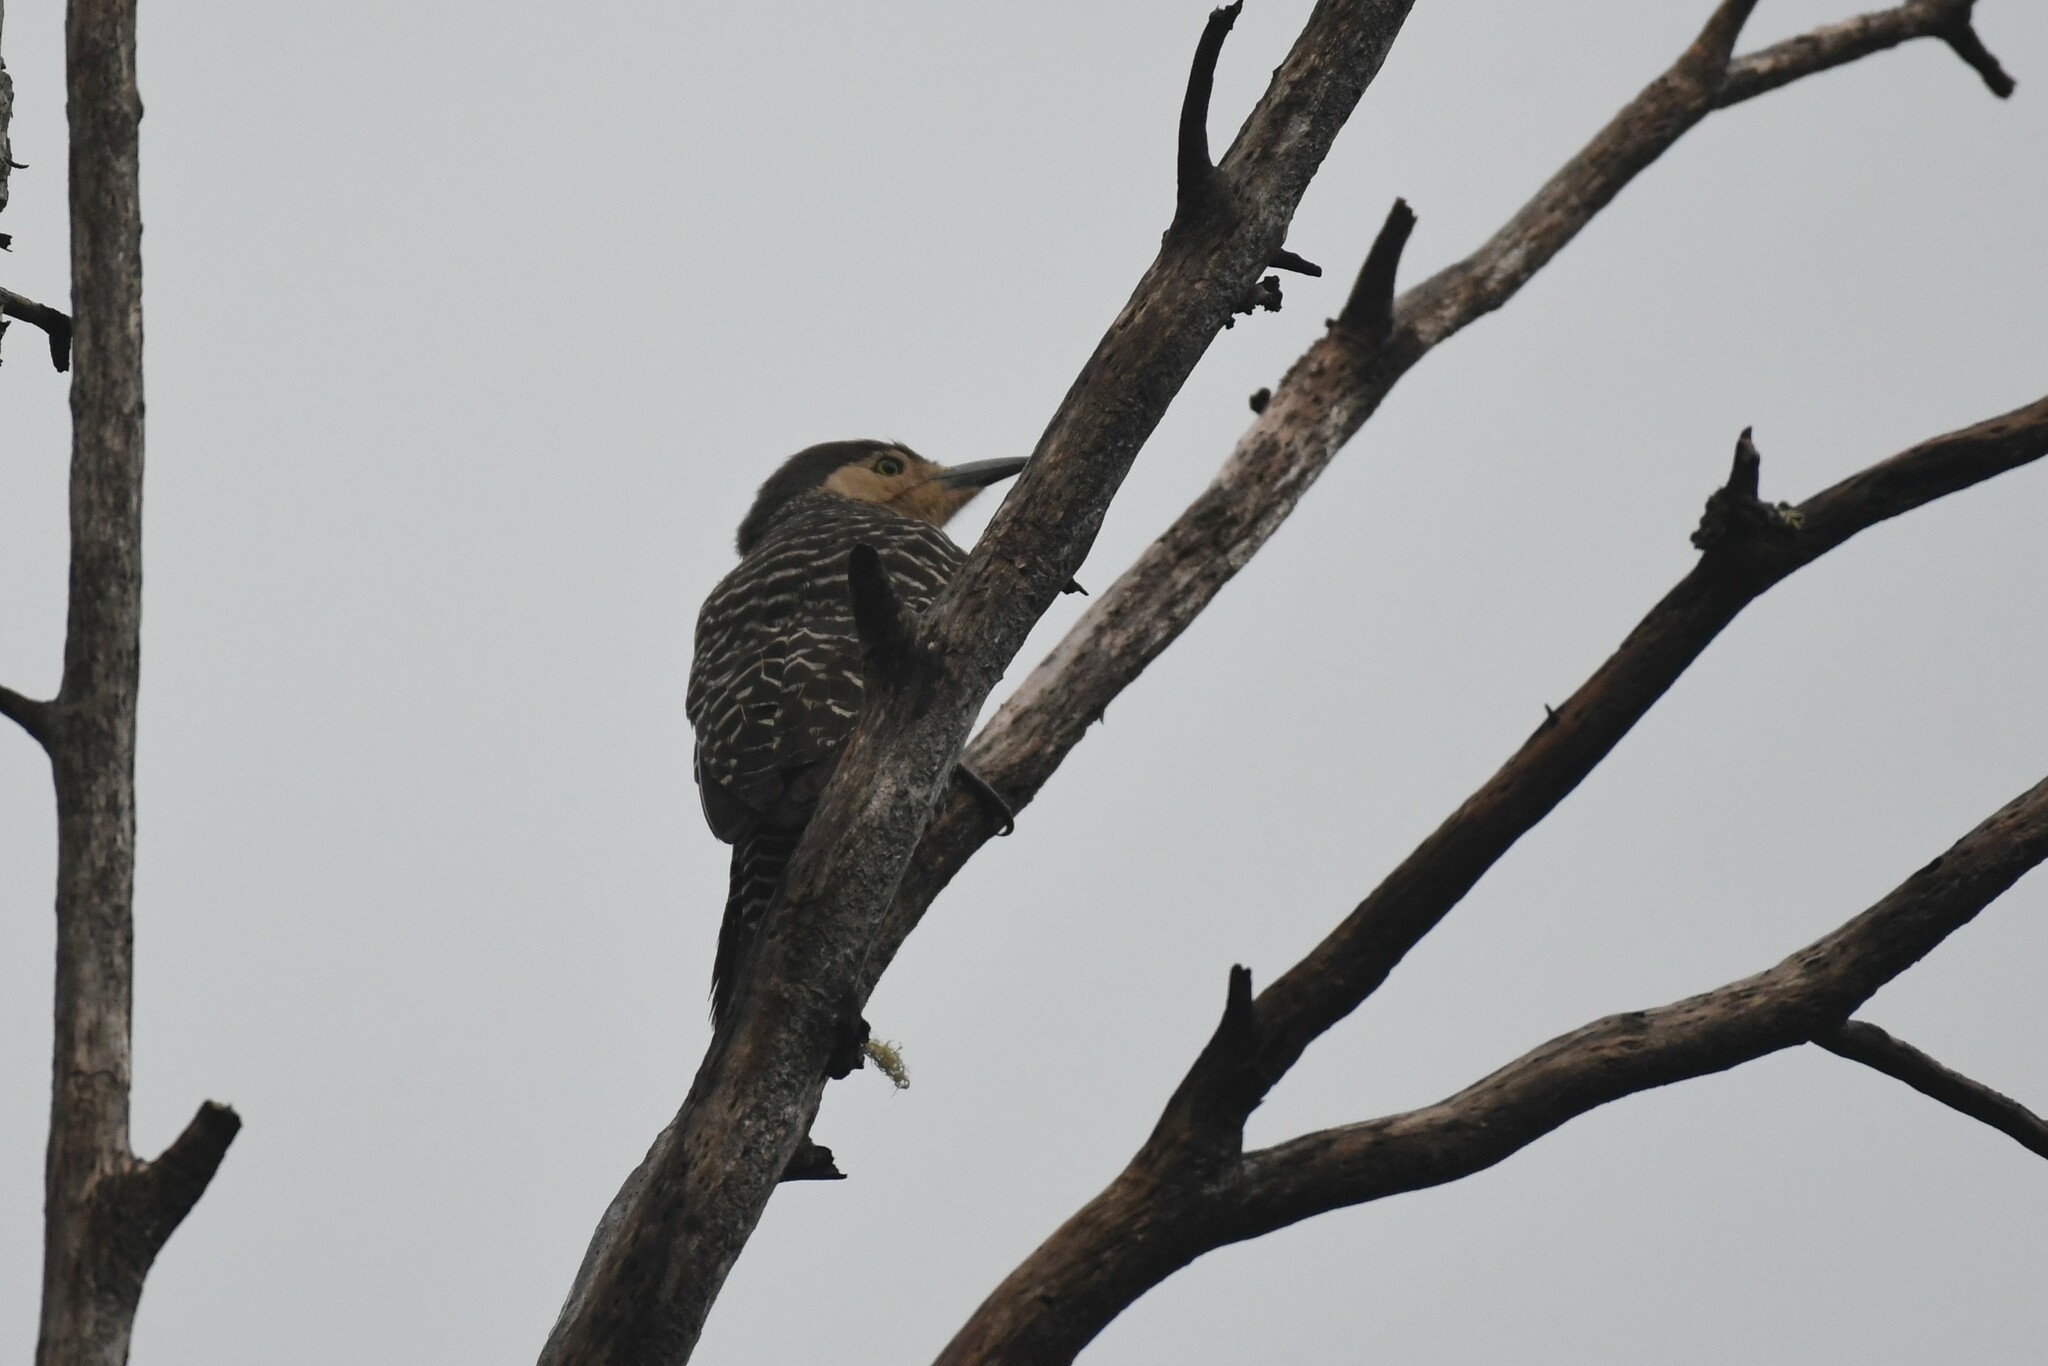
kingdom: Animalia
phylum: Chordata
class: Aves
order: Piciformes
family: Picidae
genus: Colaptes
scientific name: Colaptes pitius
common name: Chilean flicker
